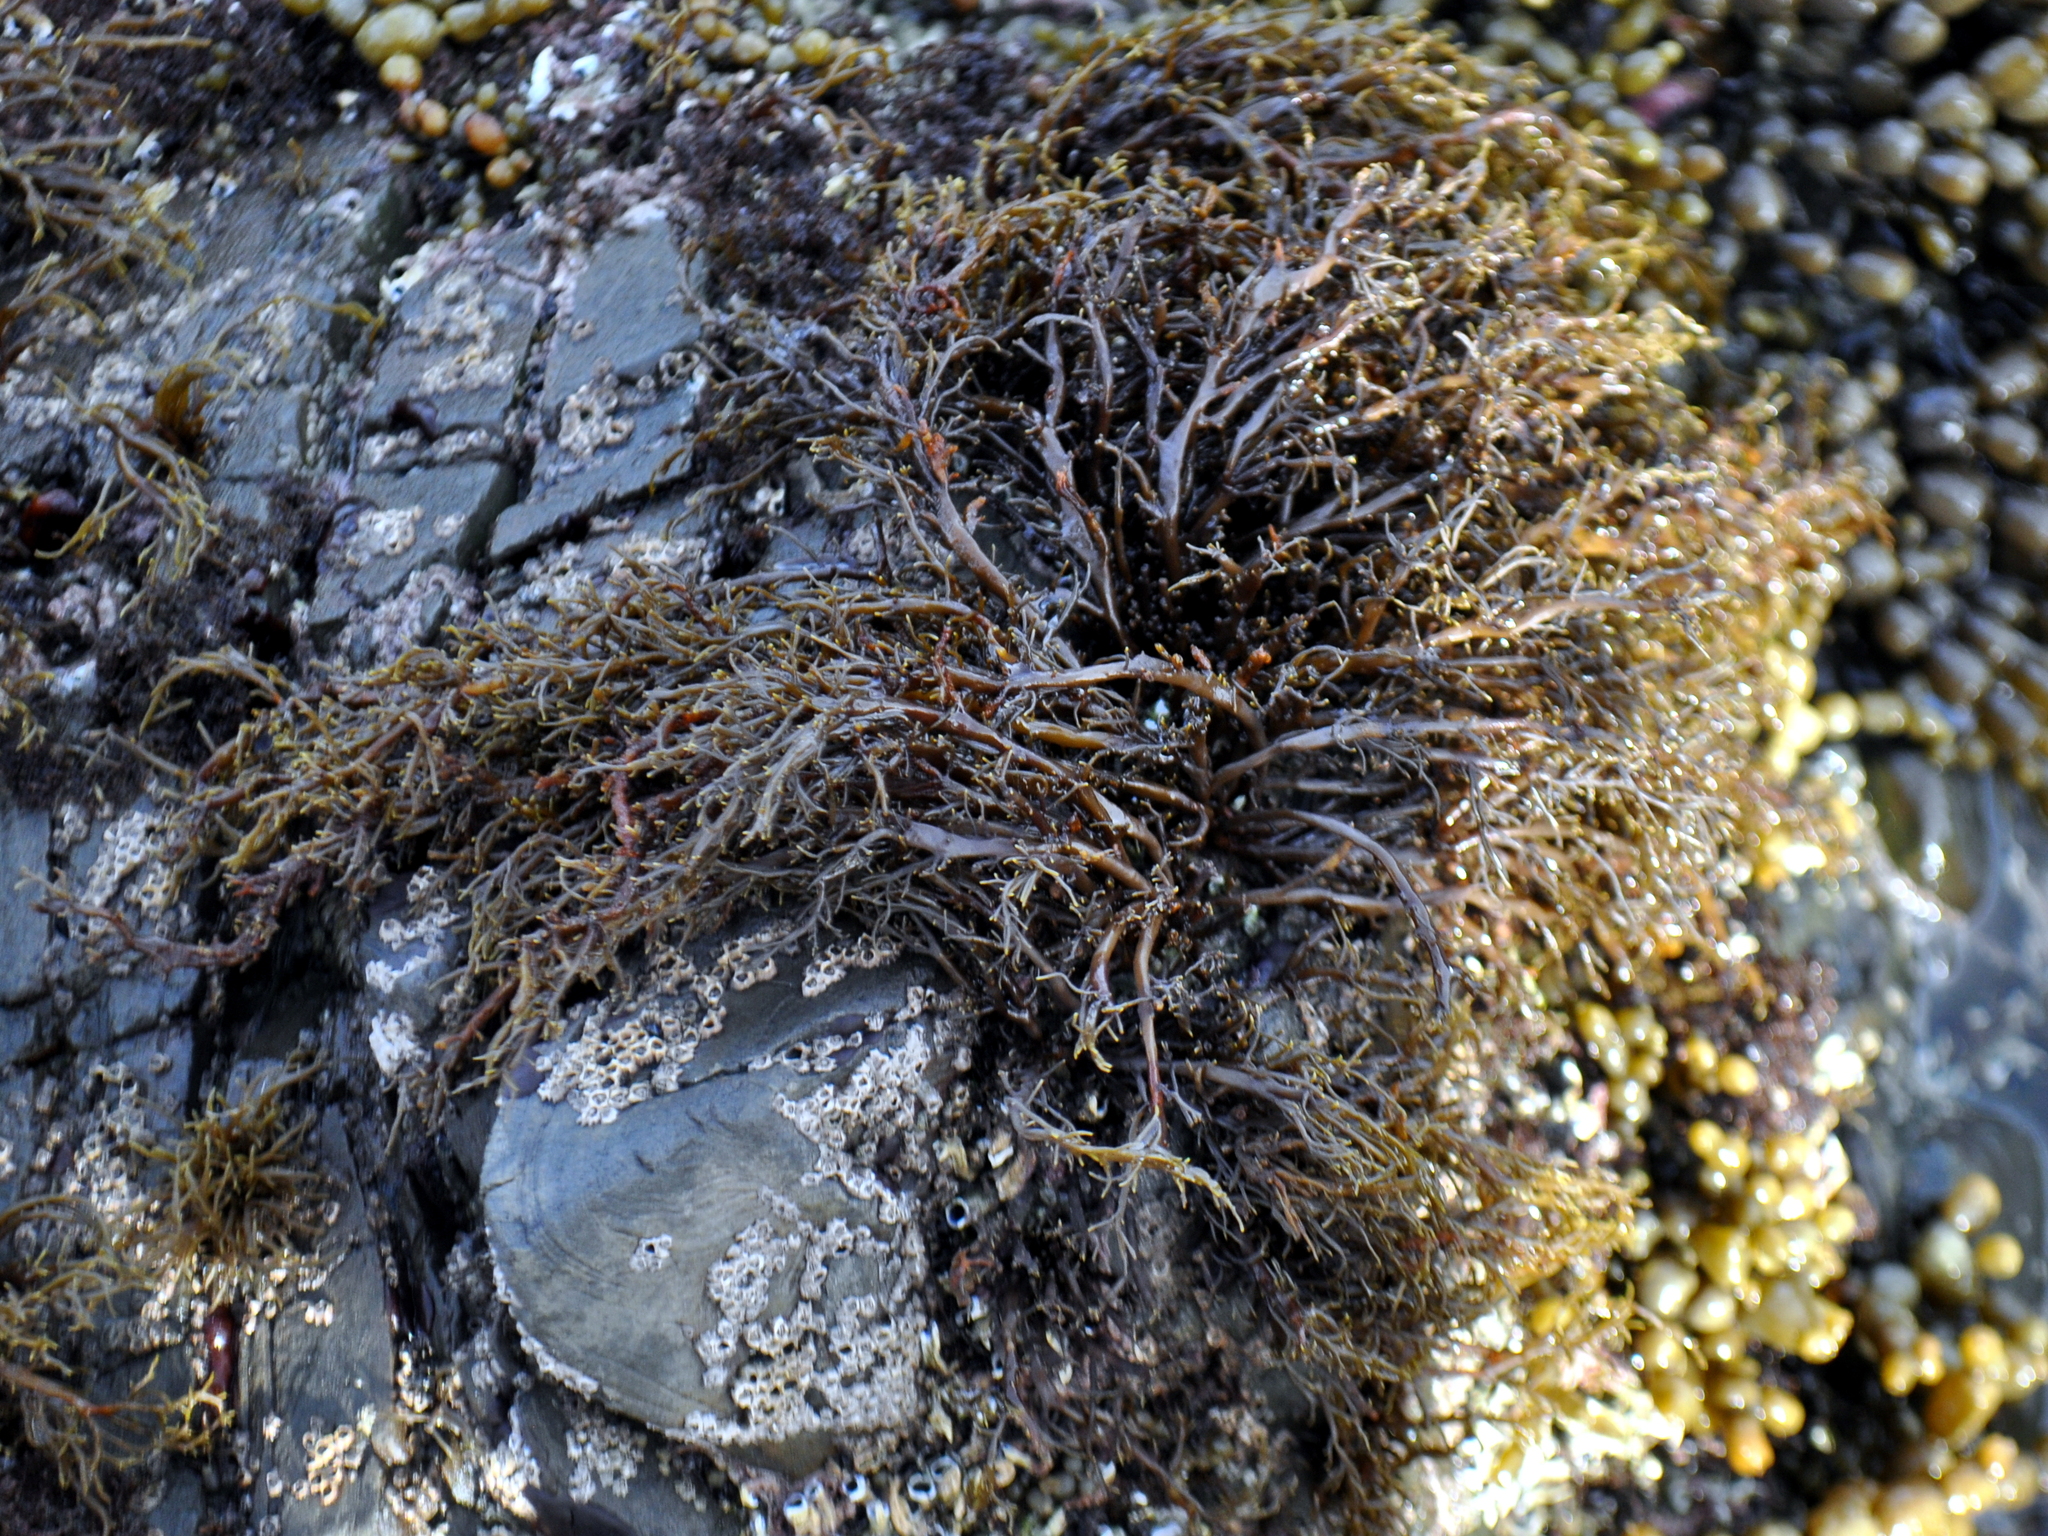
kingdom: Chromista
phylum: Ochrophyta
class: Phaeophyceae
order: Scytothamnales
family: Scytothamnaceae
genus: Scytothamnus
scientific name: Scytothamnus australis
